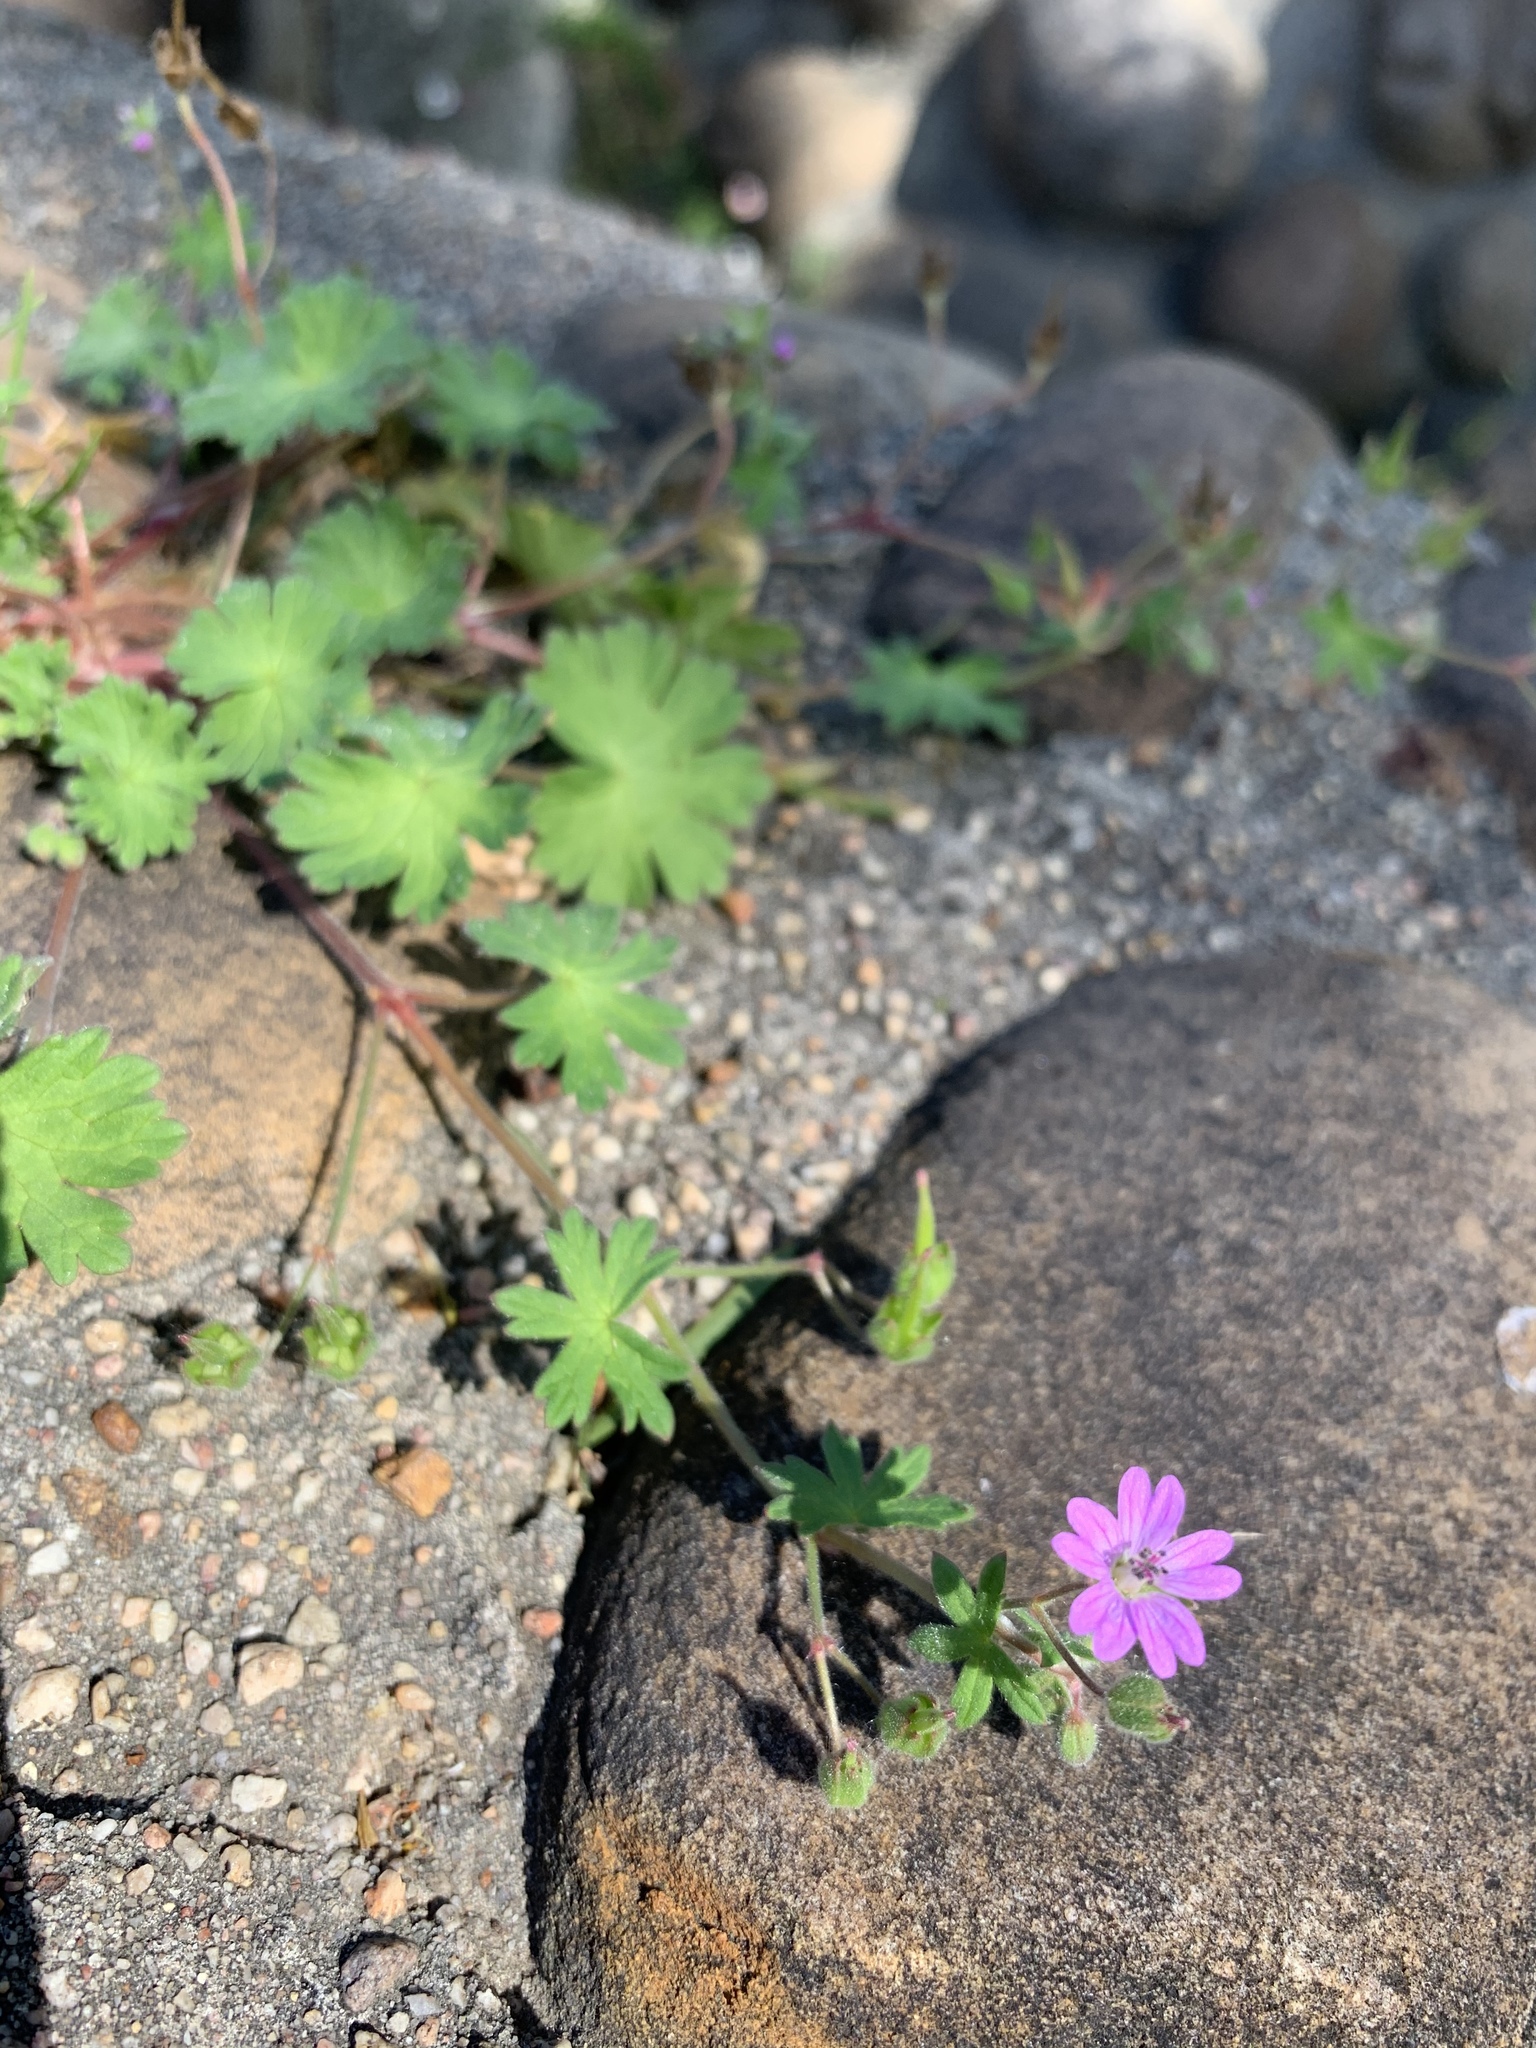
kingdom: Plantae
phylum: Tracheophyta
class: Magnoliopsida
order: Geraniales
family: Geraniaceae
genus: Geranium
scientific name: Geranium molle
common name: Dove's-foot crane's-bill
